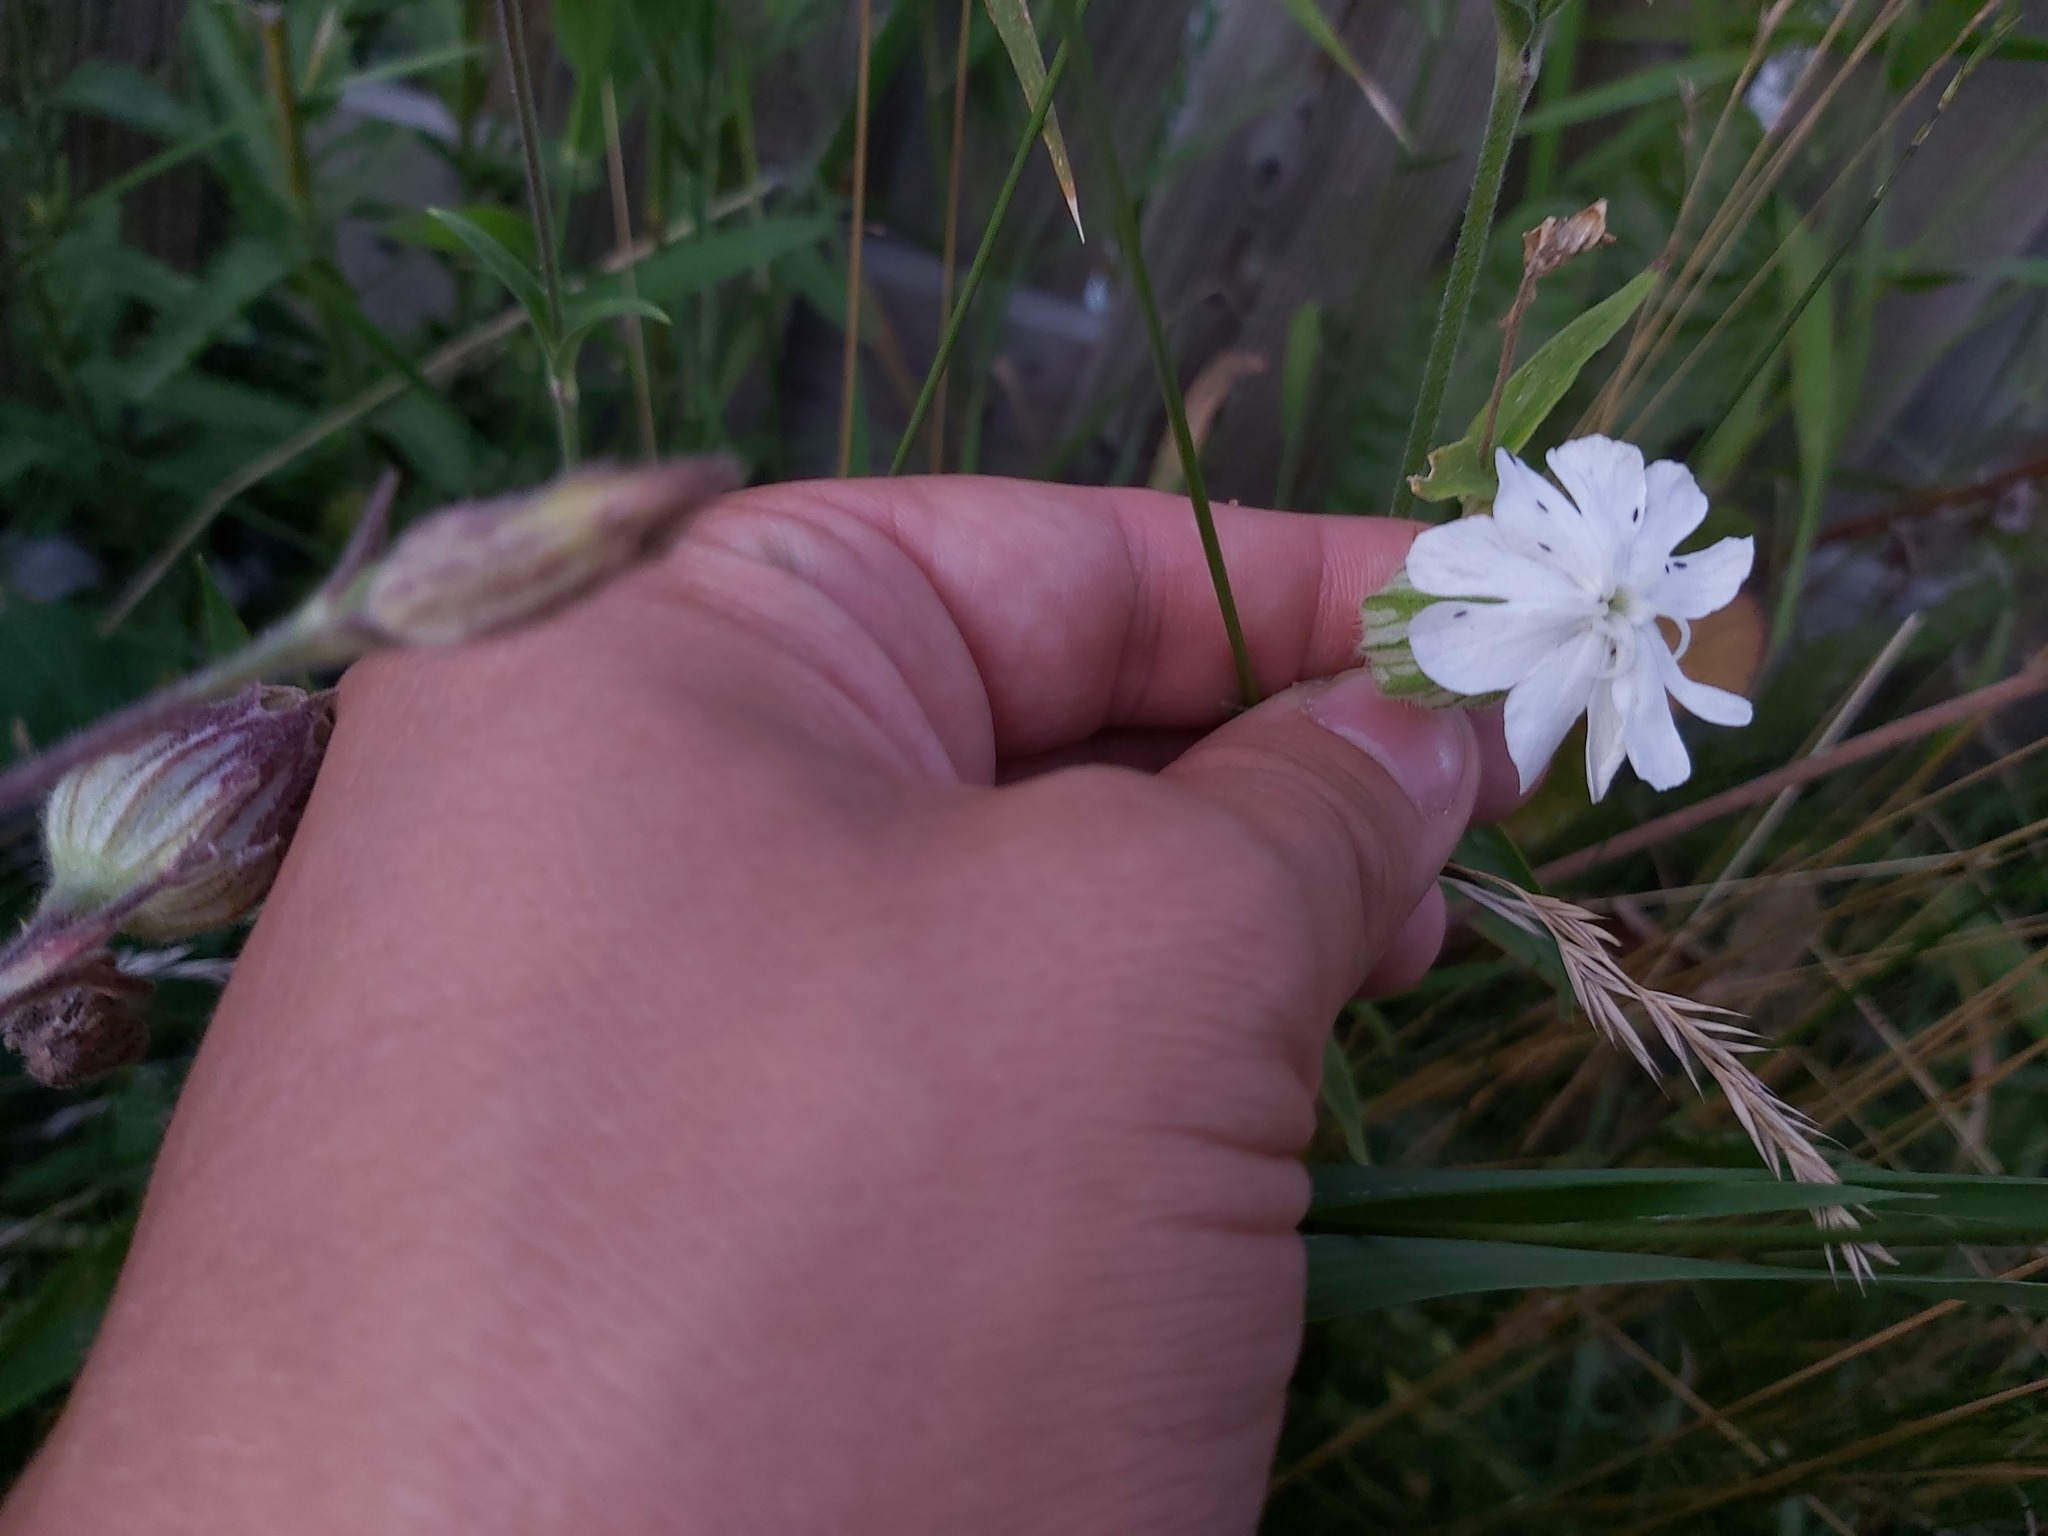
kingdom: Plantae
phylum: Tracheophyta
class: Magnoliopsida
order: Caryophyllales
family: Caryophyllaceae
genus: Silene
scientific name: Silene latifolia
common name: White campion
